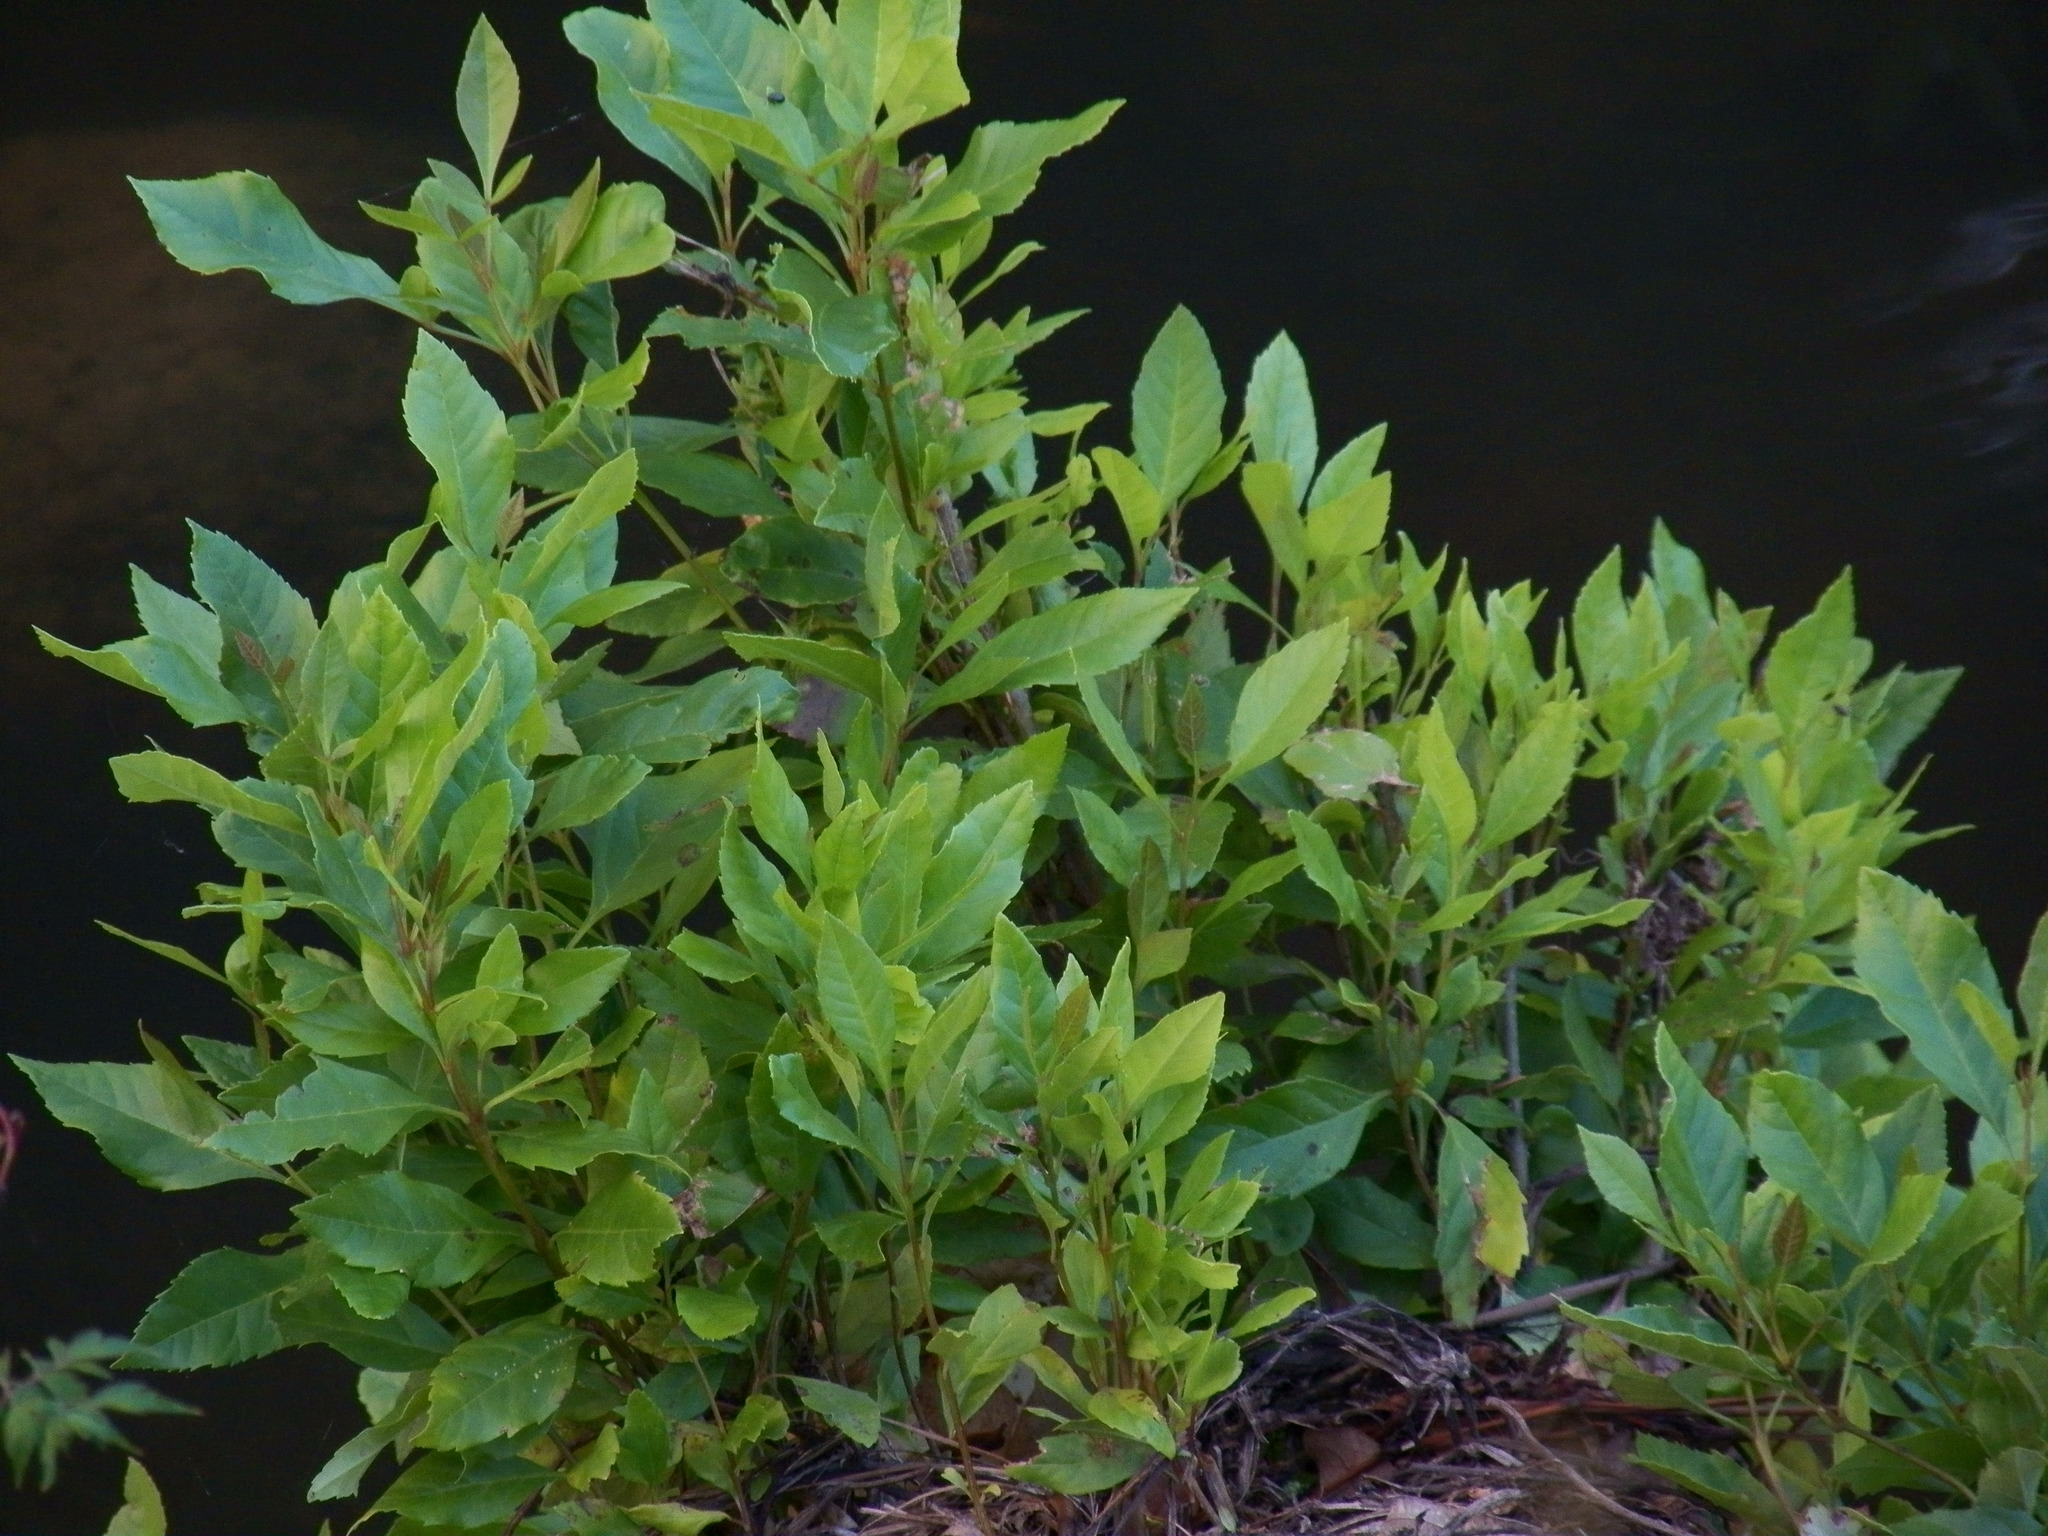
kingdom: Plantae
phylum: Tracheophyta
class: Magnoliopsida
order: Asterales
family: Asteraceae
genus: Baccharis
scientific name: Baccharis halimifolia
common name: Eastern baccharis
